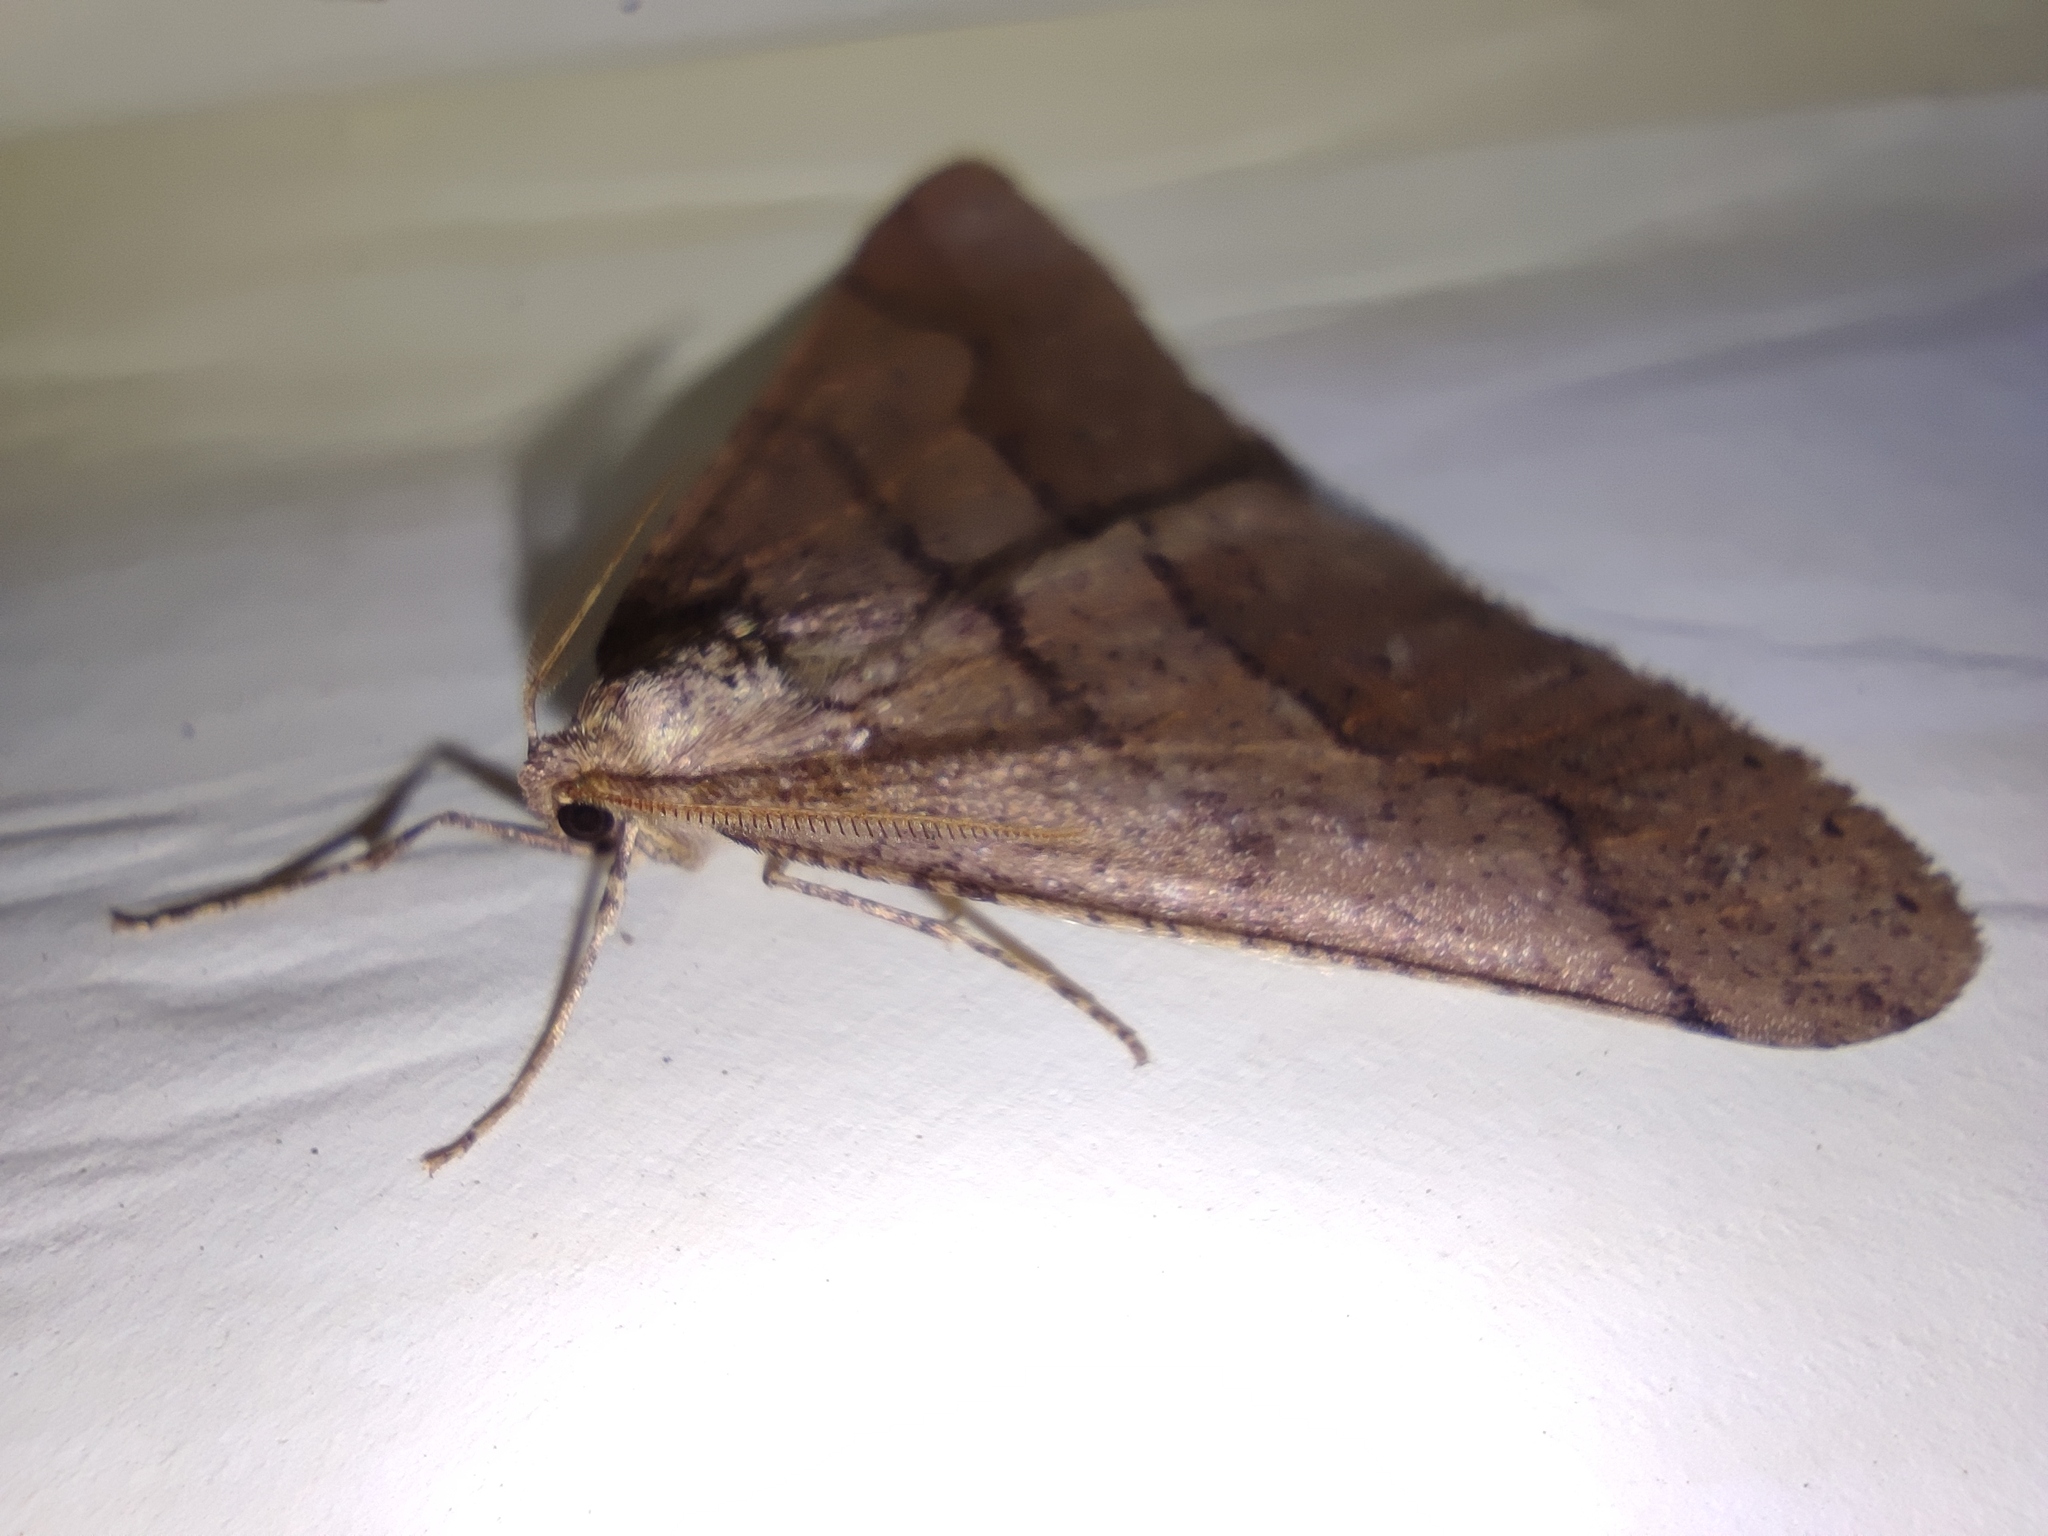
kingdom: Animalia
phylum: Arthropoda
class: Insecta
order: Lepidoptera
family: Geometridae
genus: Agriopis
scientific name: Agriopis marginaria
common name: Dotted border
